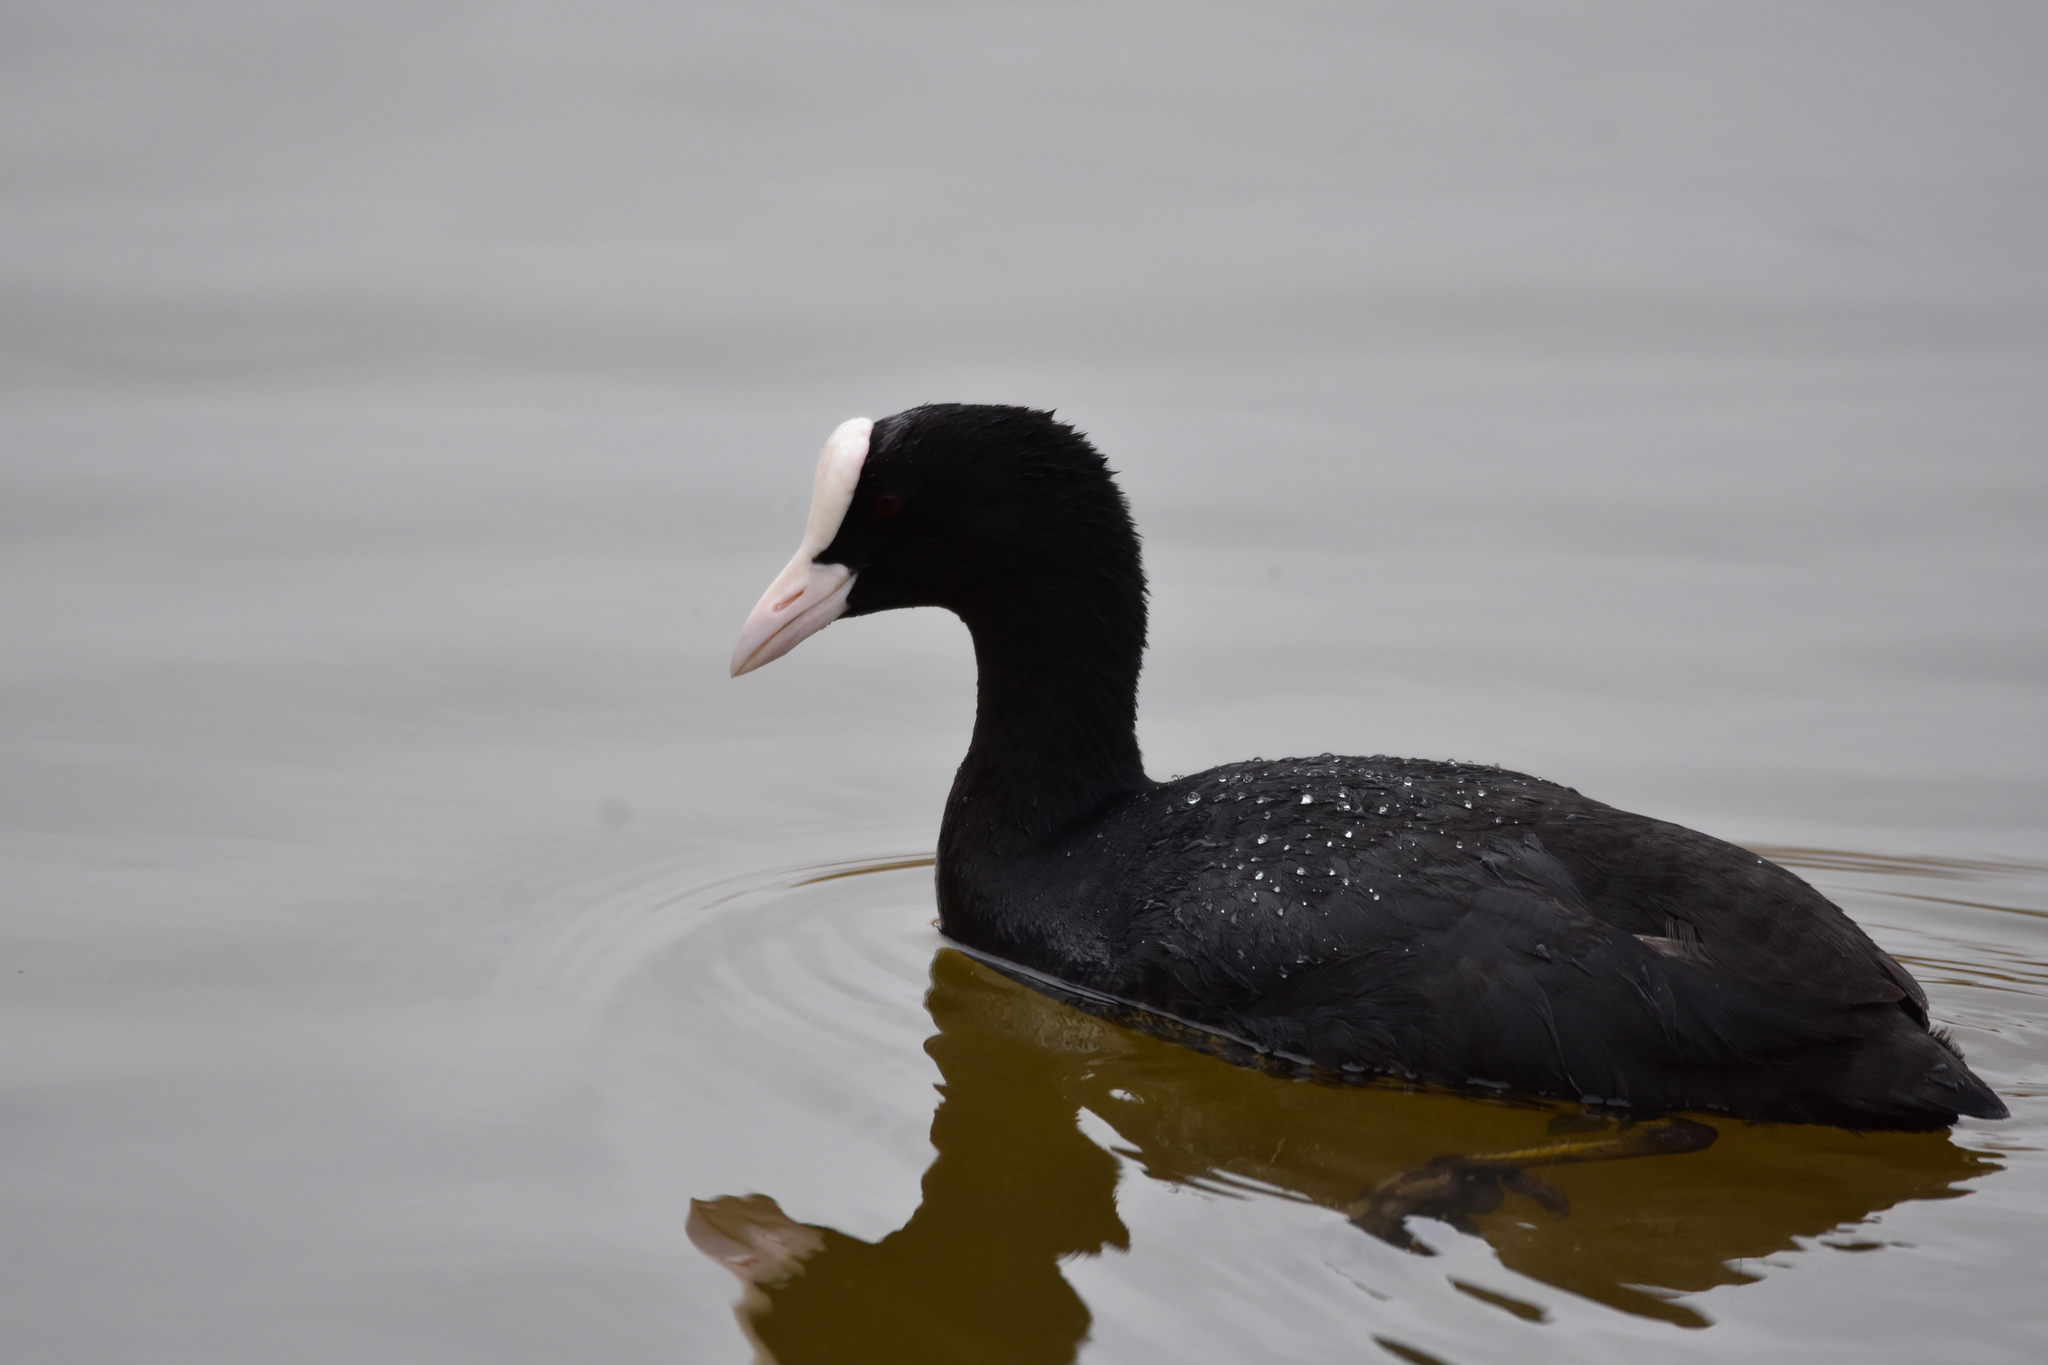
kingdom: Animalia
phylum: Chordata
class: Aves
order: Gruiformes
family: Rallidae
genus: Fulica
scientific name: Fulica atra
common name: Eurasian coot
